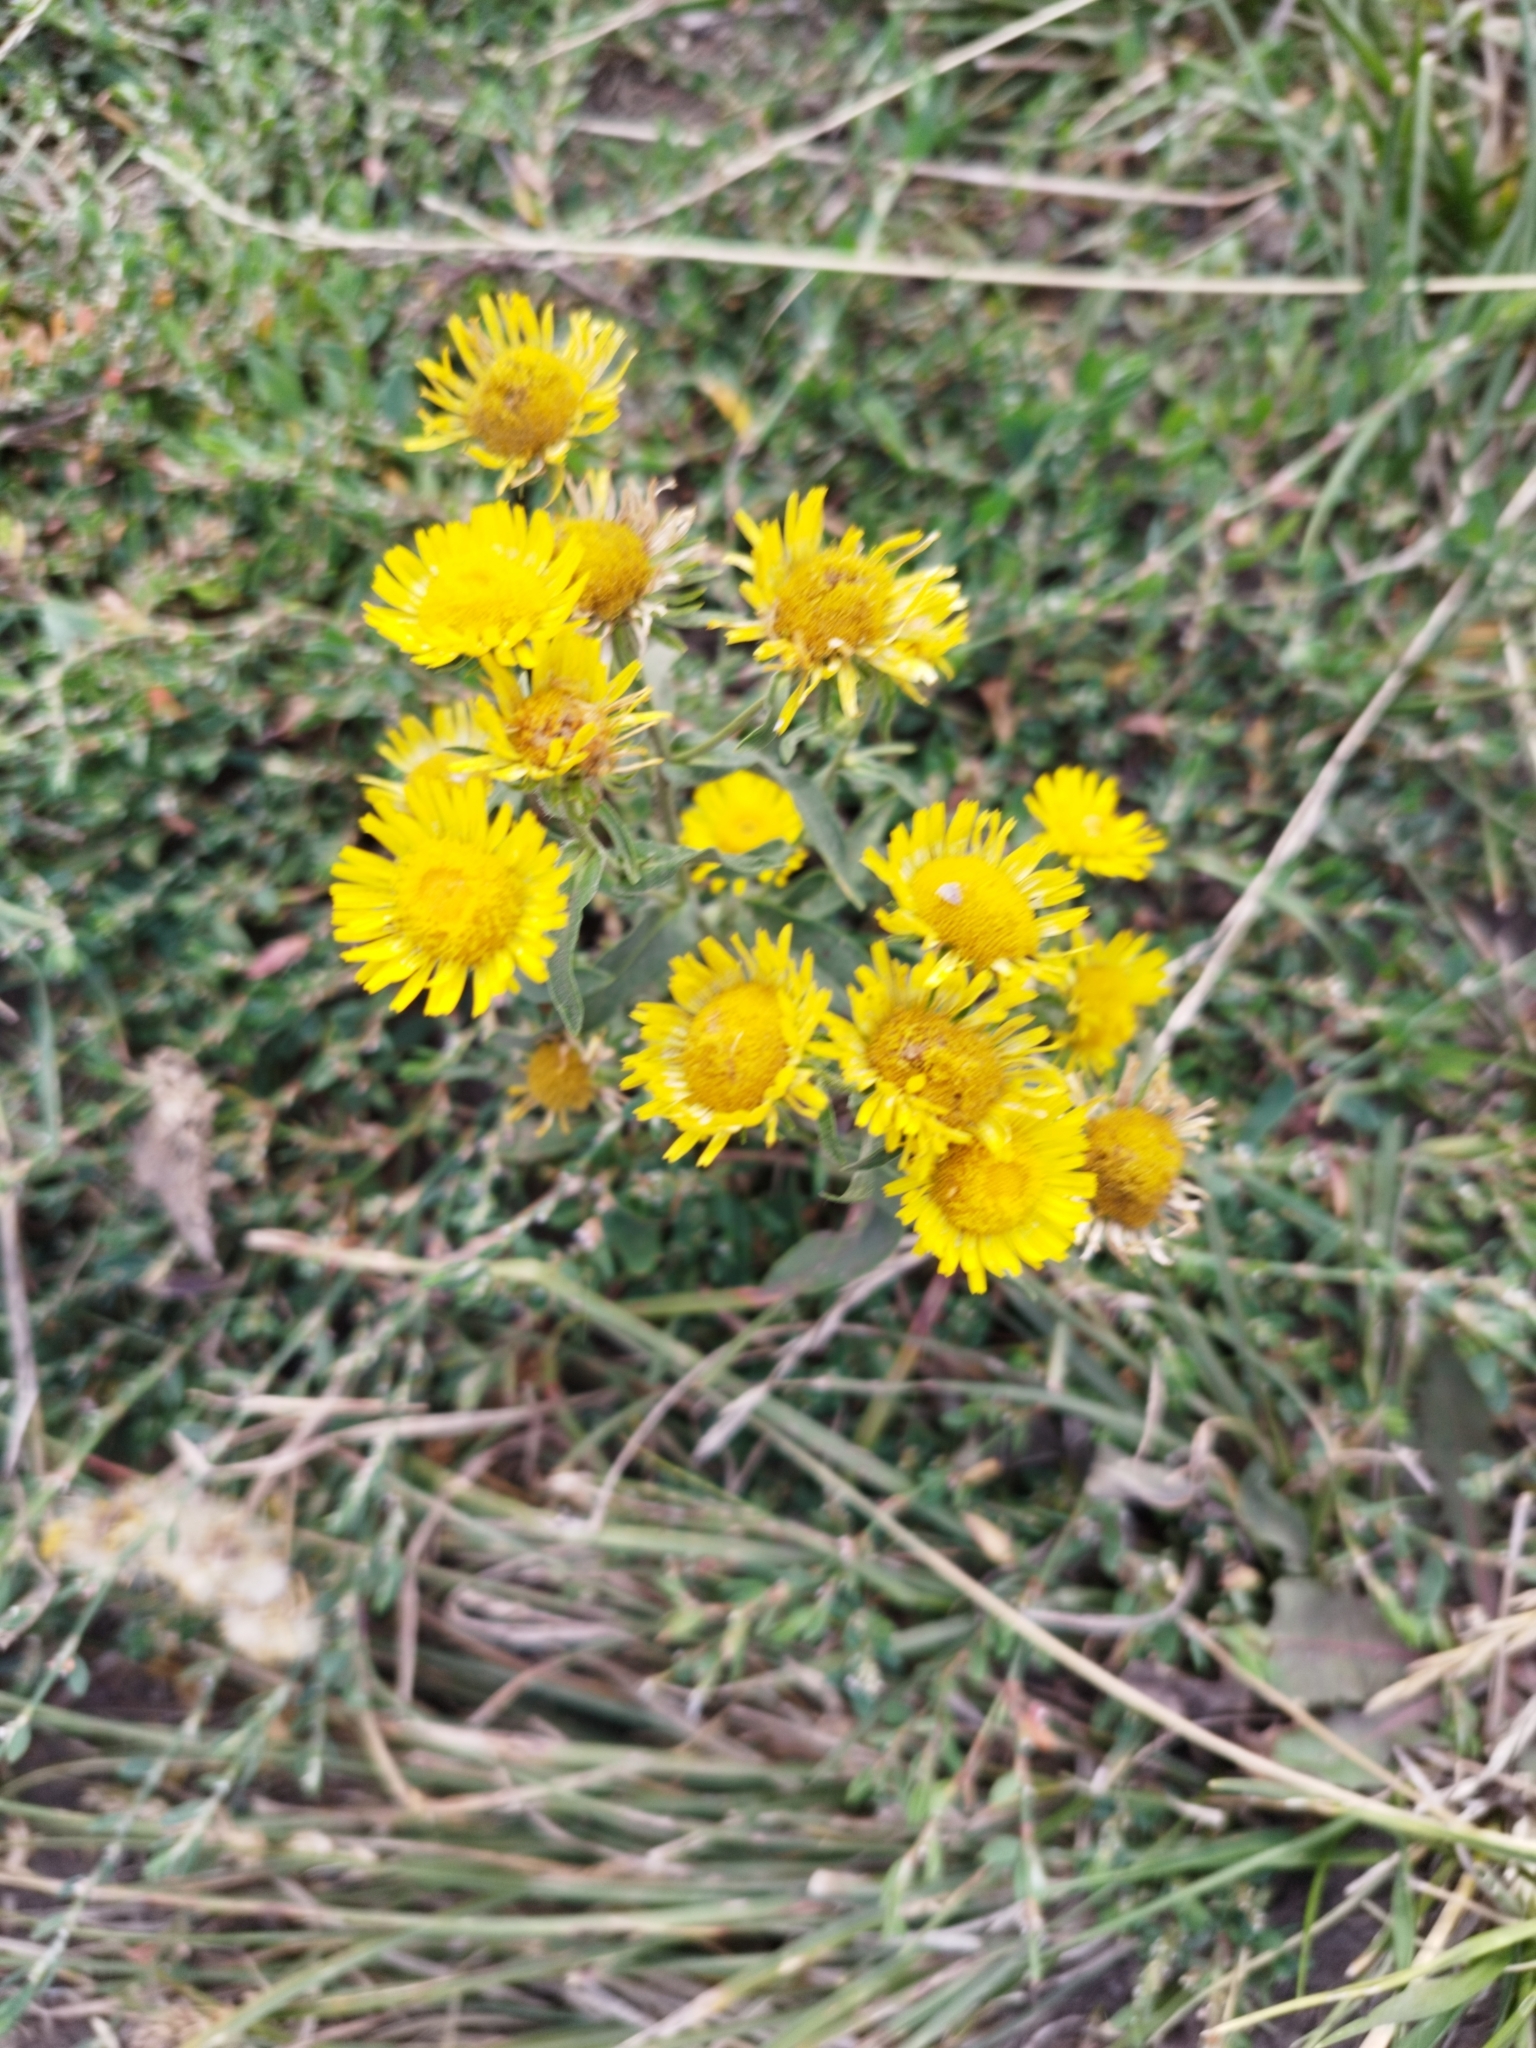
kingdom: Plantae
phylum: Tracheophyta
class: Magnoliopsida
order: Asterales
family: Asteraceae
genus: Pentanema
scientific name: Pentanema britannicum
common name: British elecampane
